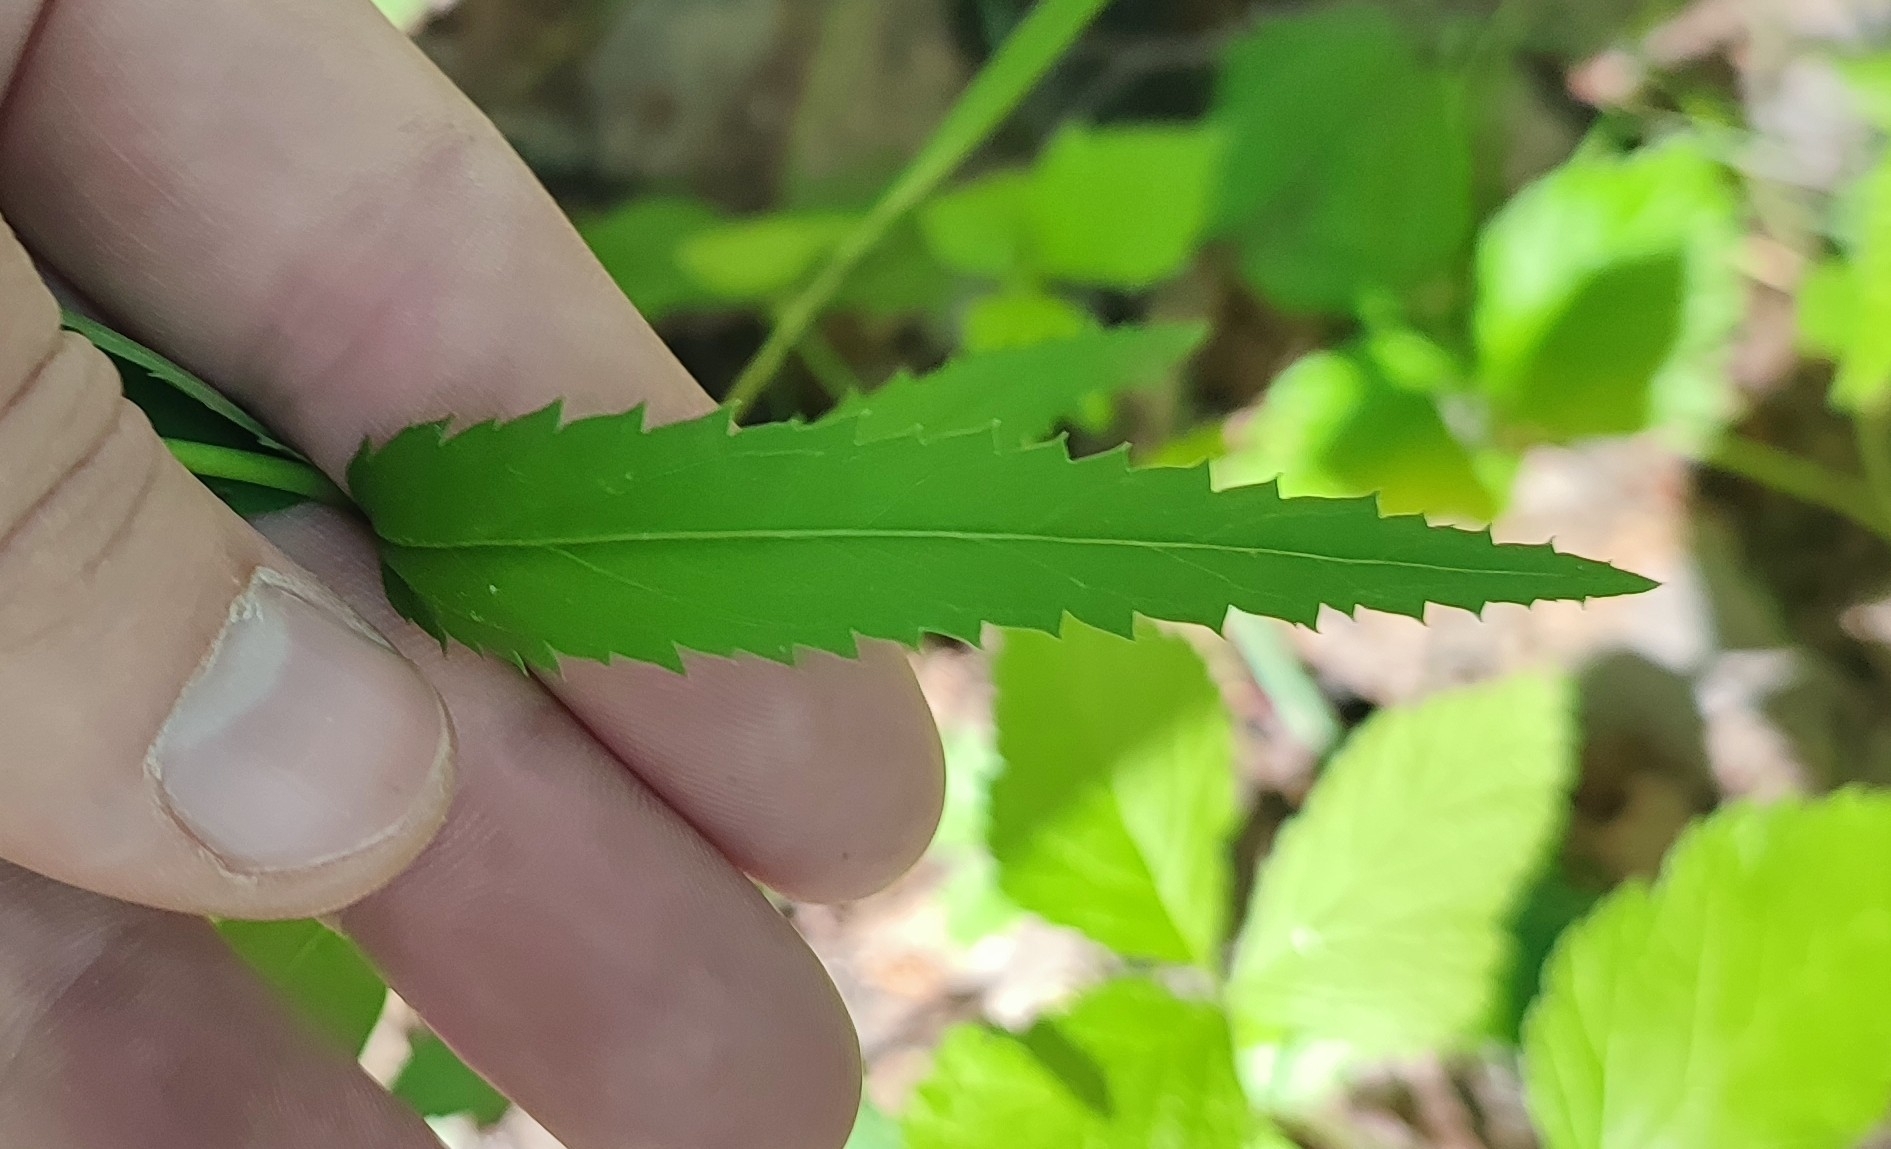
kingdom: Plantae
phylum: Tracheophyta
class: Magnoliopsida
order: Lamiales
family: Plantaginaceae
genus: Veronica
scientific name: Veronica longifolia
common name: Garden speedwell
